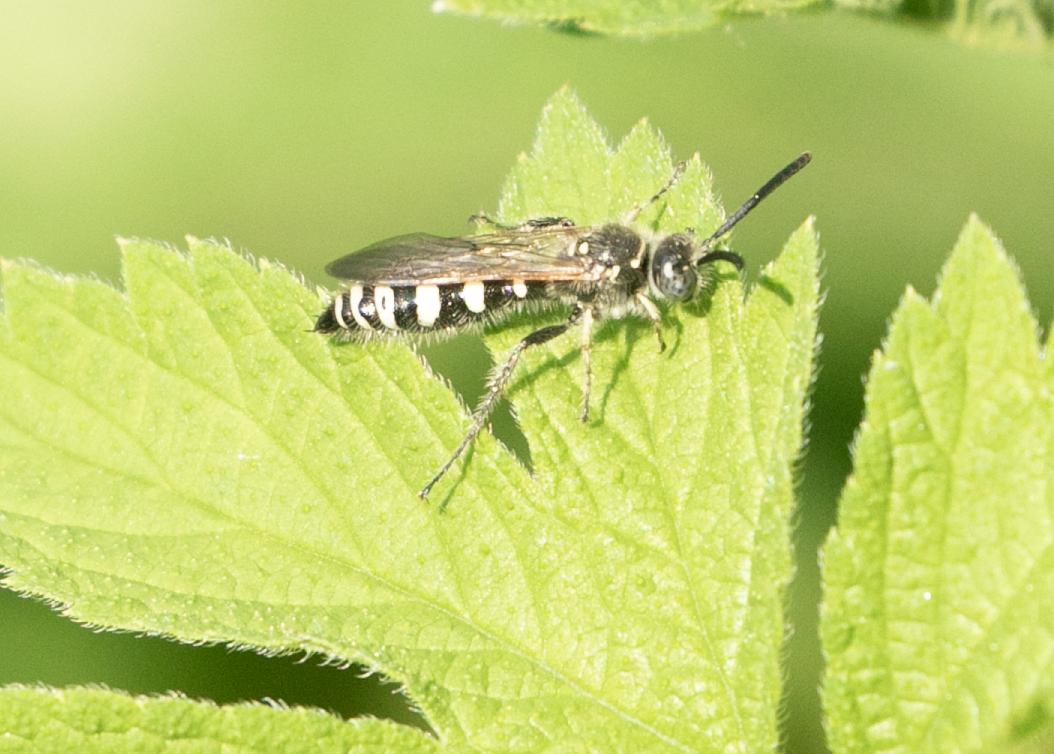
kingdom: Animalia
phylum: Arthropoda
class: Insecta
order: Hymenoptera
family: Vespidae
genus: Vespa
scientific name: Vespa sexmaculata
